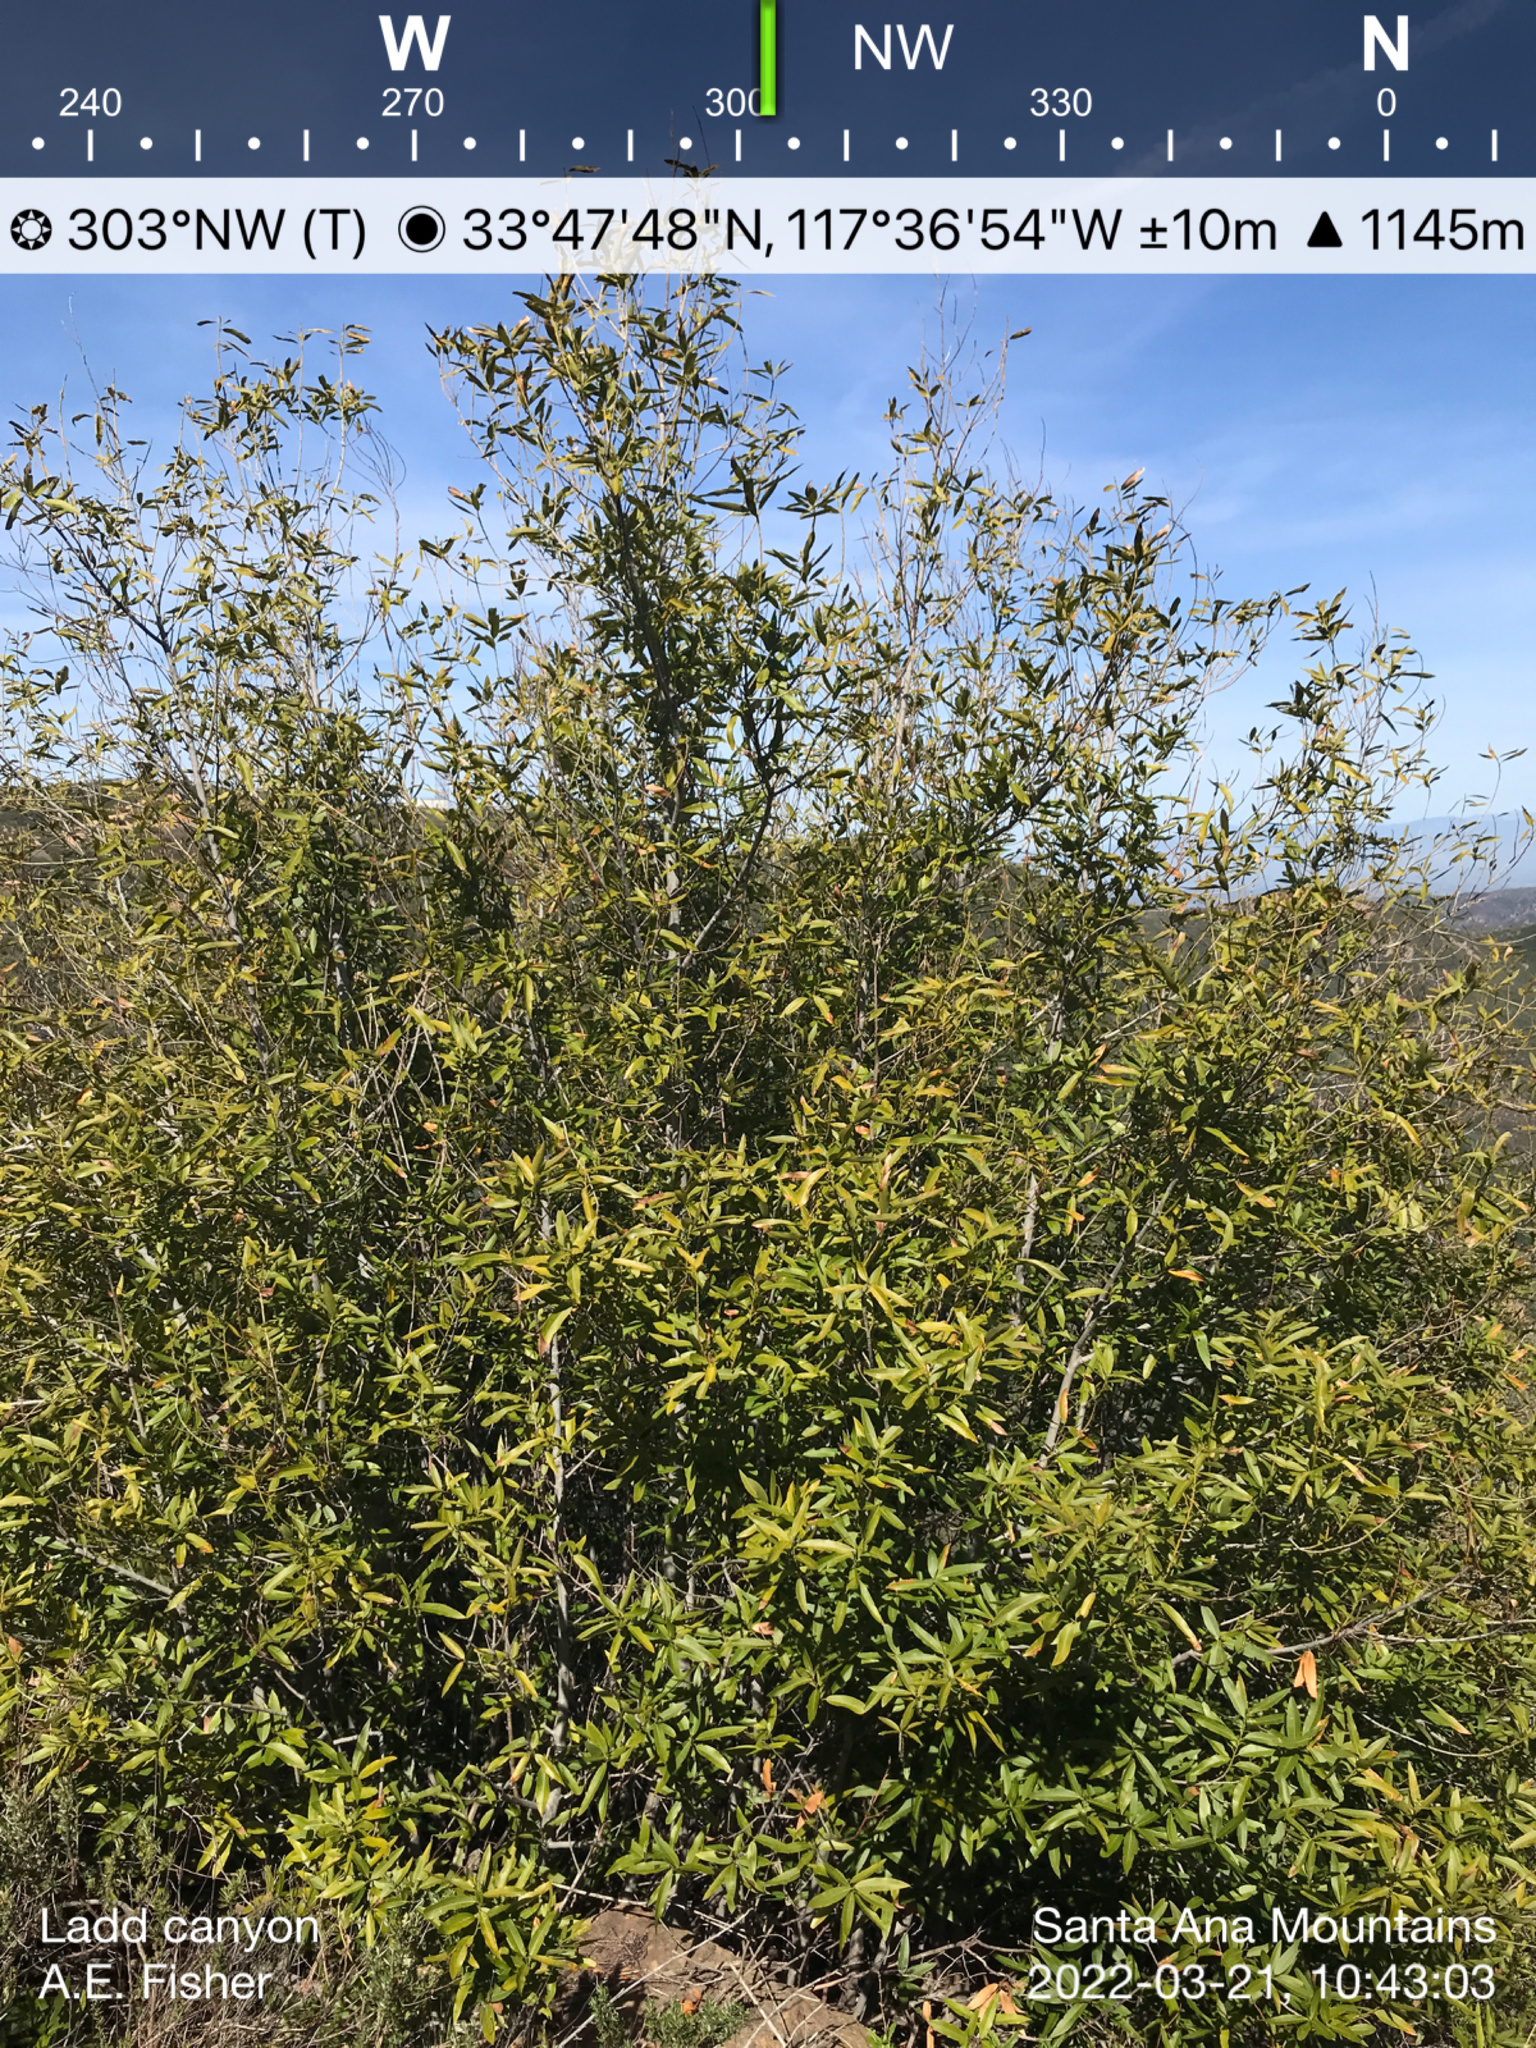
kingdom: Plantae
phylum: Tracheophyta
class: Magnoliopsida
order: Laurales
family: Lauraceae
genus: Umbellularia
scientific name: Umbellularia californica
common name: California bay
